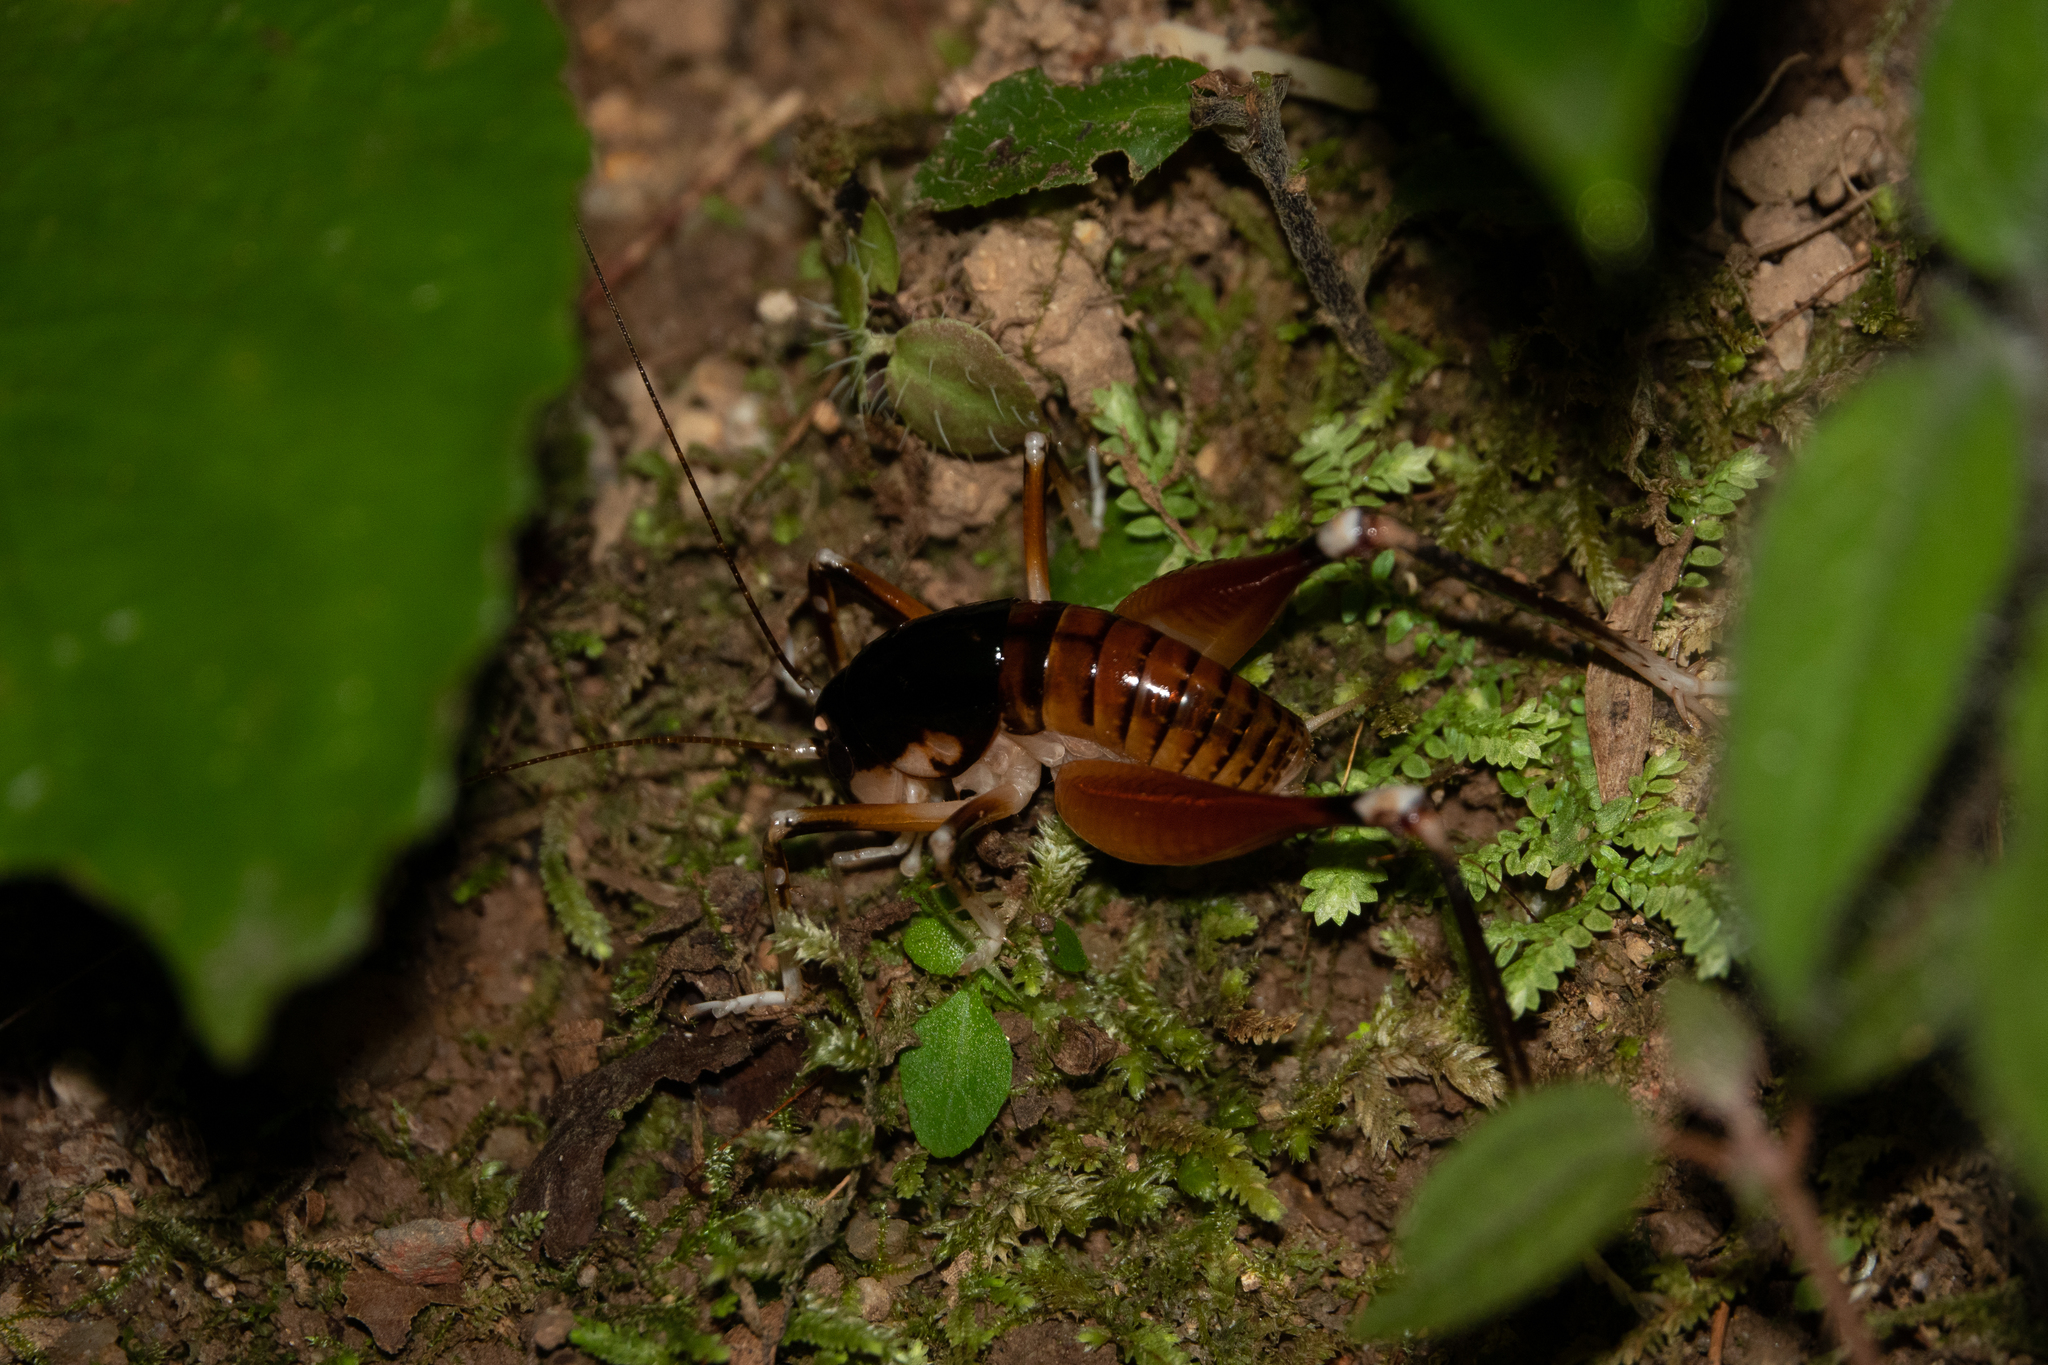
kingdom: Animalia
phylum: Arthropoda
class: Insecta
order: Orthoptera
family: Anostostomatidae
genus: Apotetamenus
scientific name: Apotetamenus amazonae
